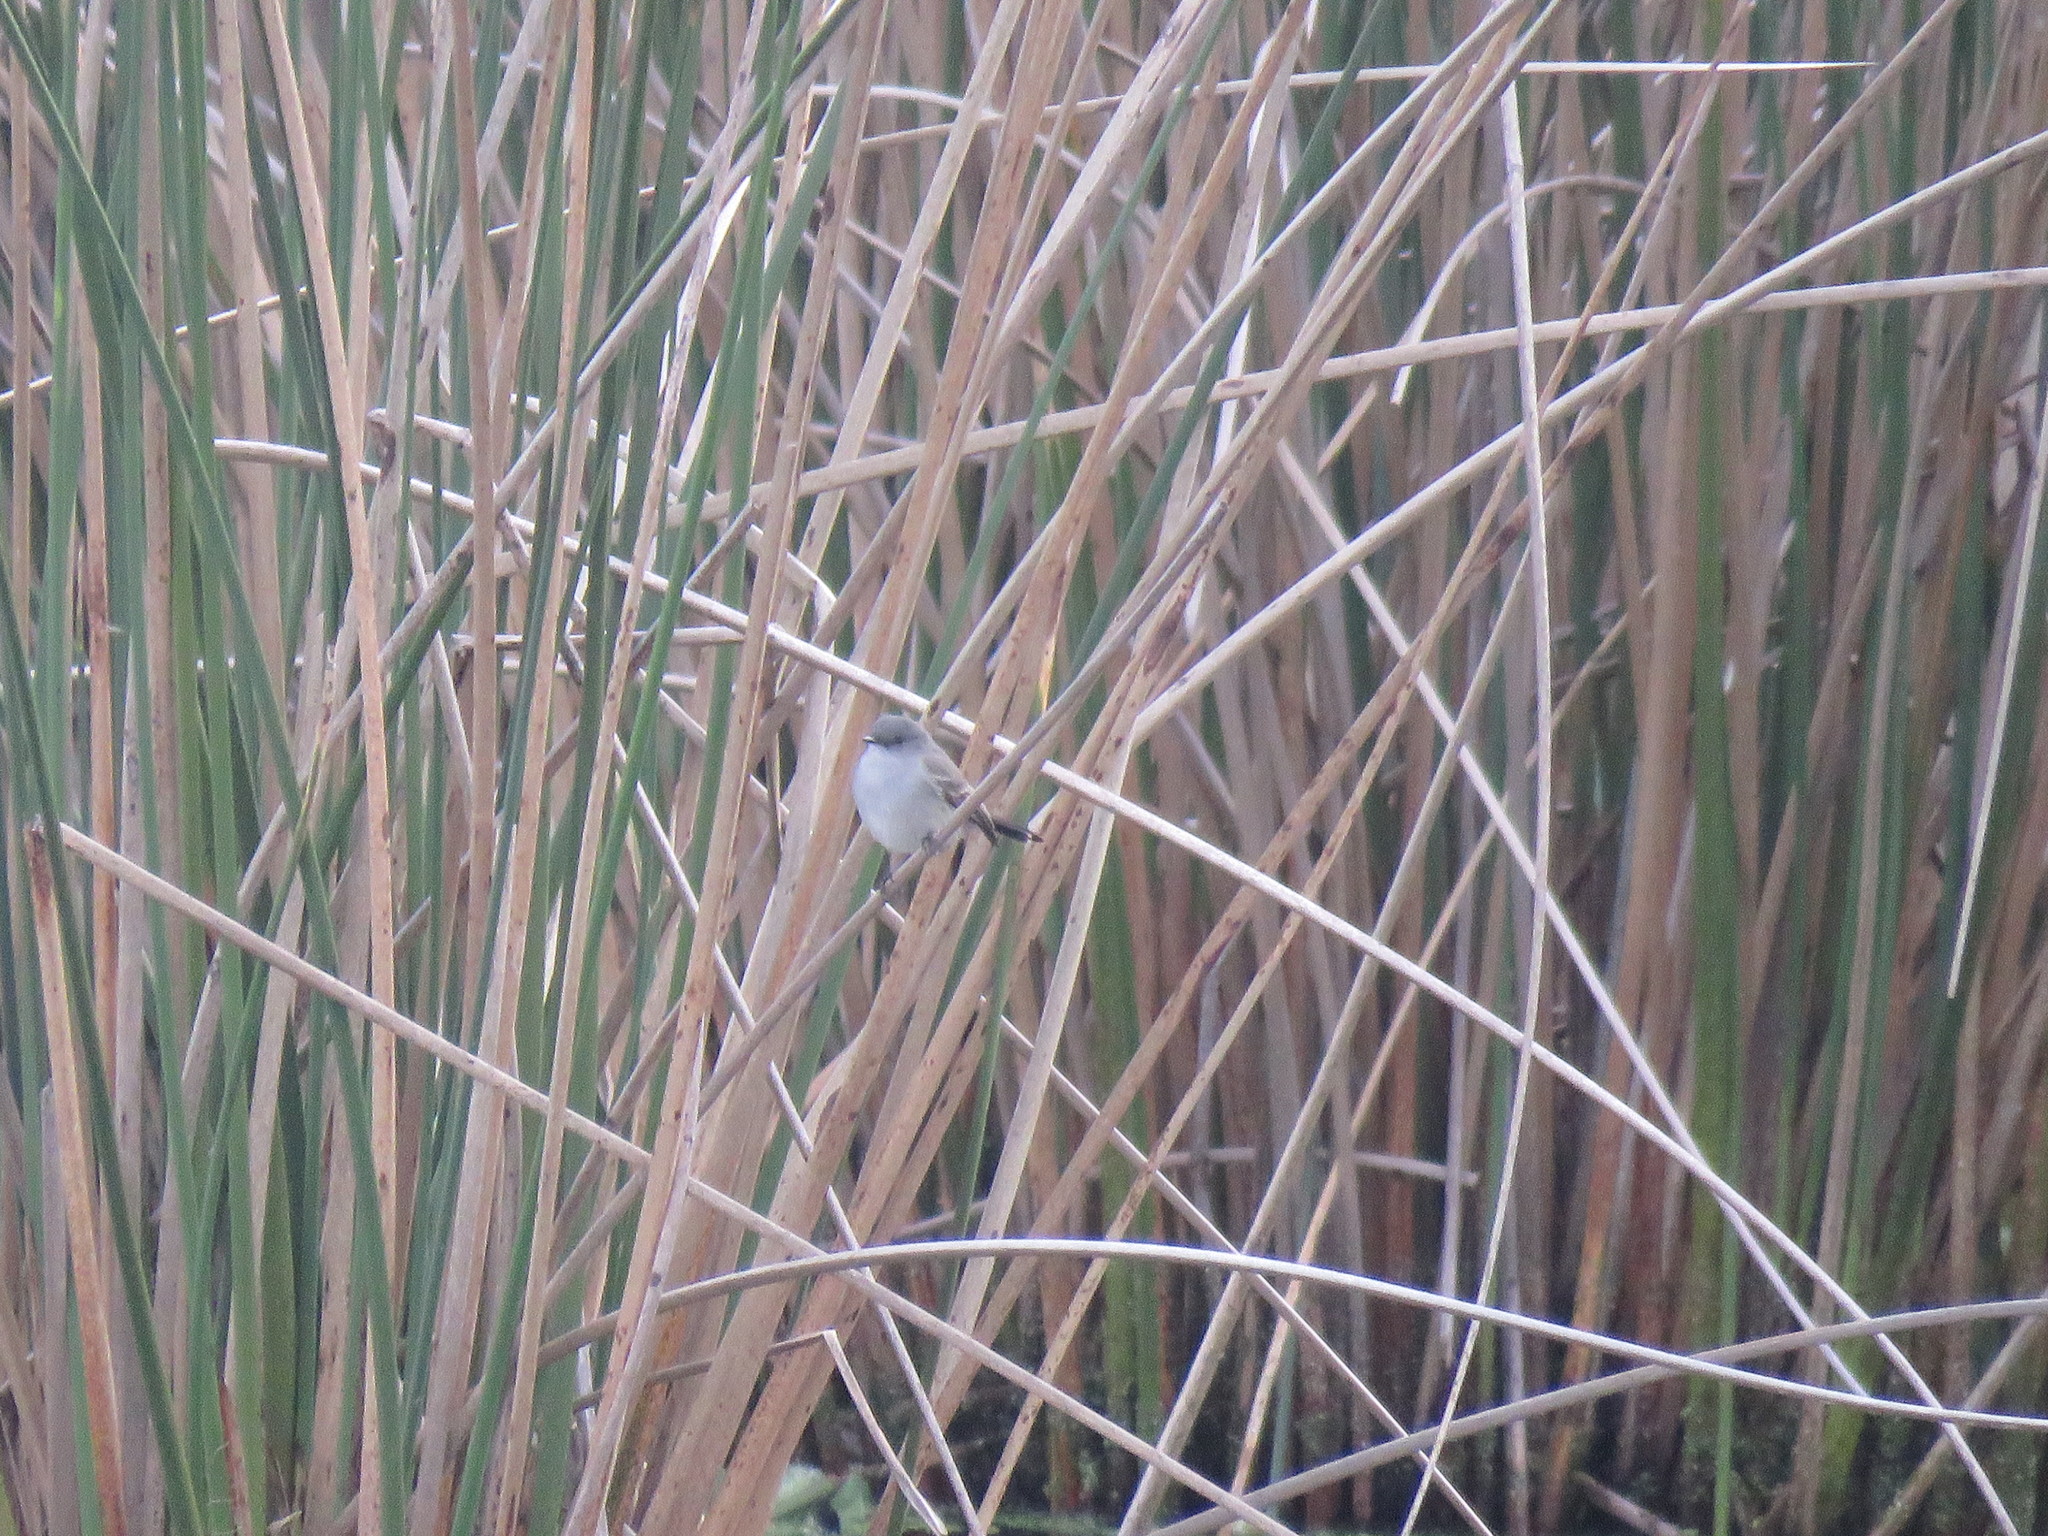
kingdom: Animalia
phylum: Chordata
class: Aves
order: Passeriformes
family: Tyrannidae
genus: Serpophaga
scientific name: Serpophaga nigricans
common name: Sooty tyrannulet
